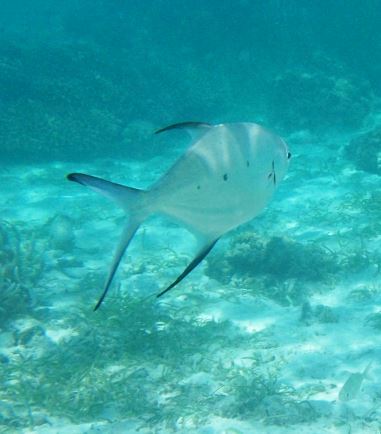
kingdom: Animalia
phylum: Chordata
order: Perciformes
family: Carangidae
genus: Trachinotus
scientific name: Trachinotus baillonii
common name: Smallspotted dart
